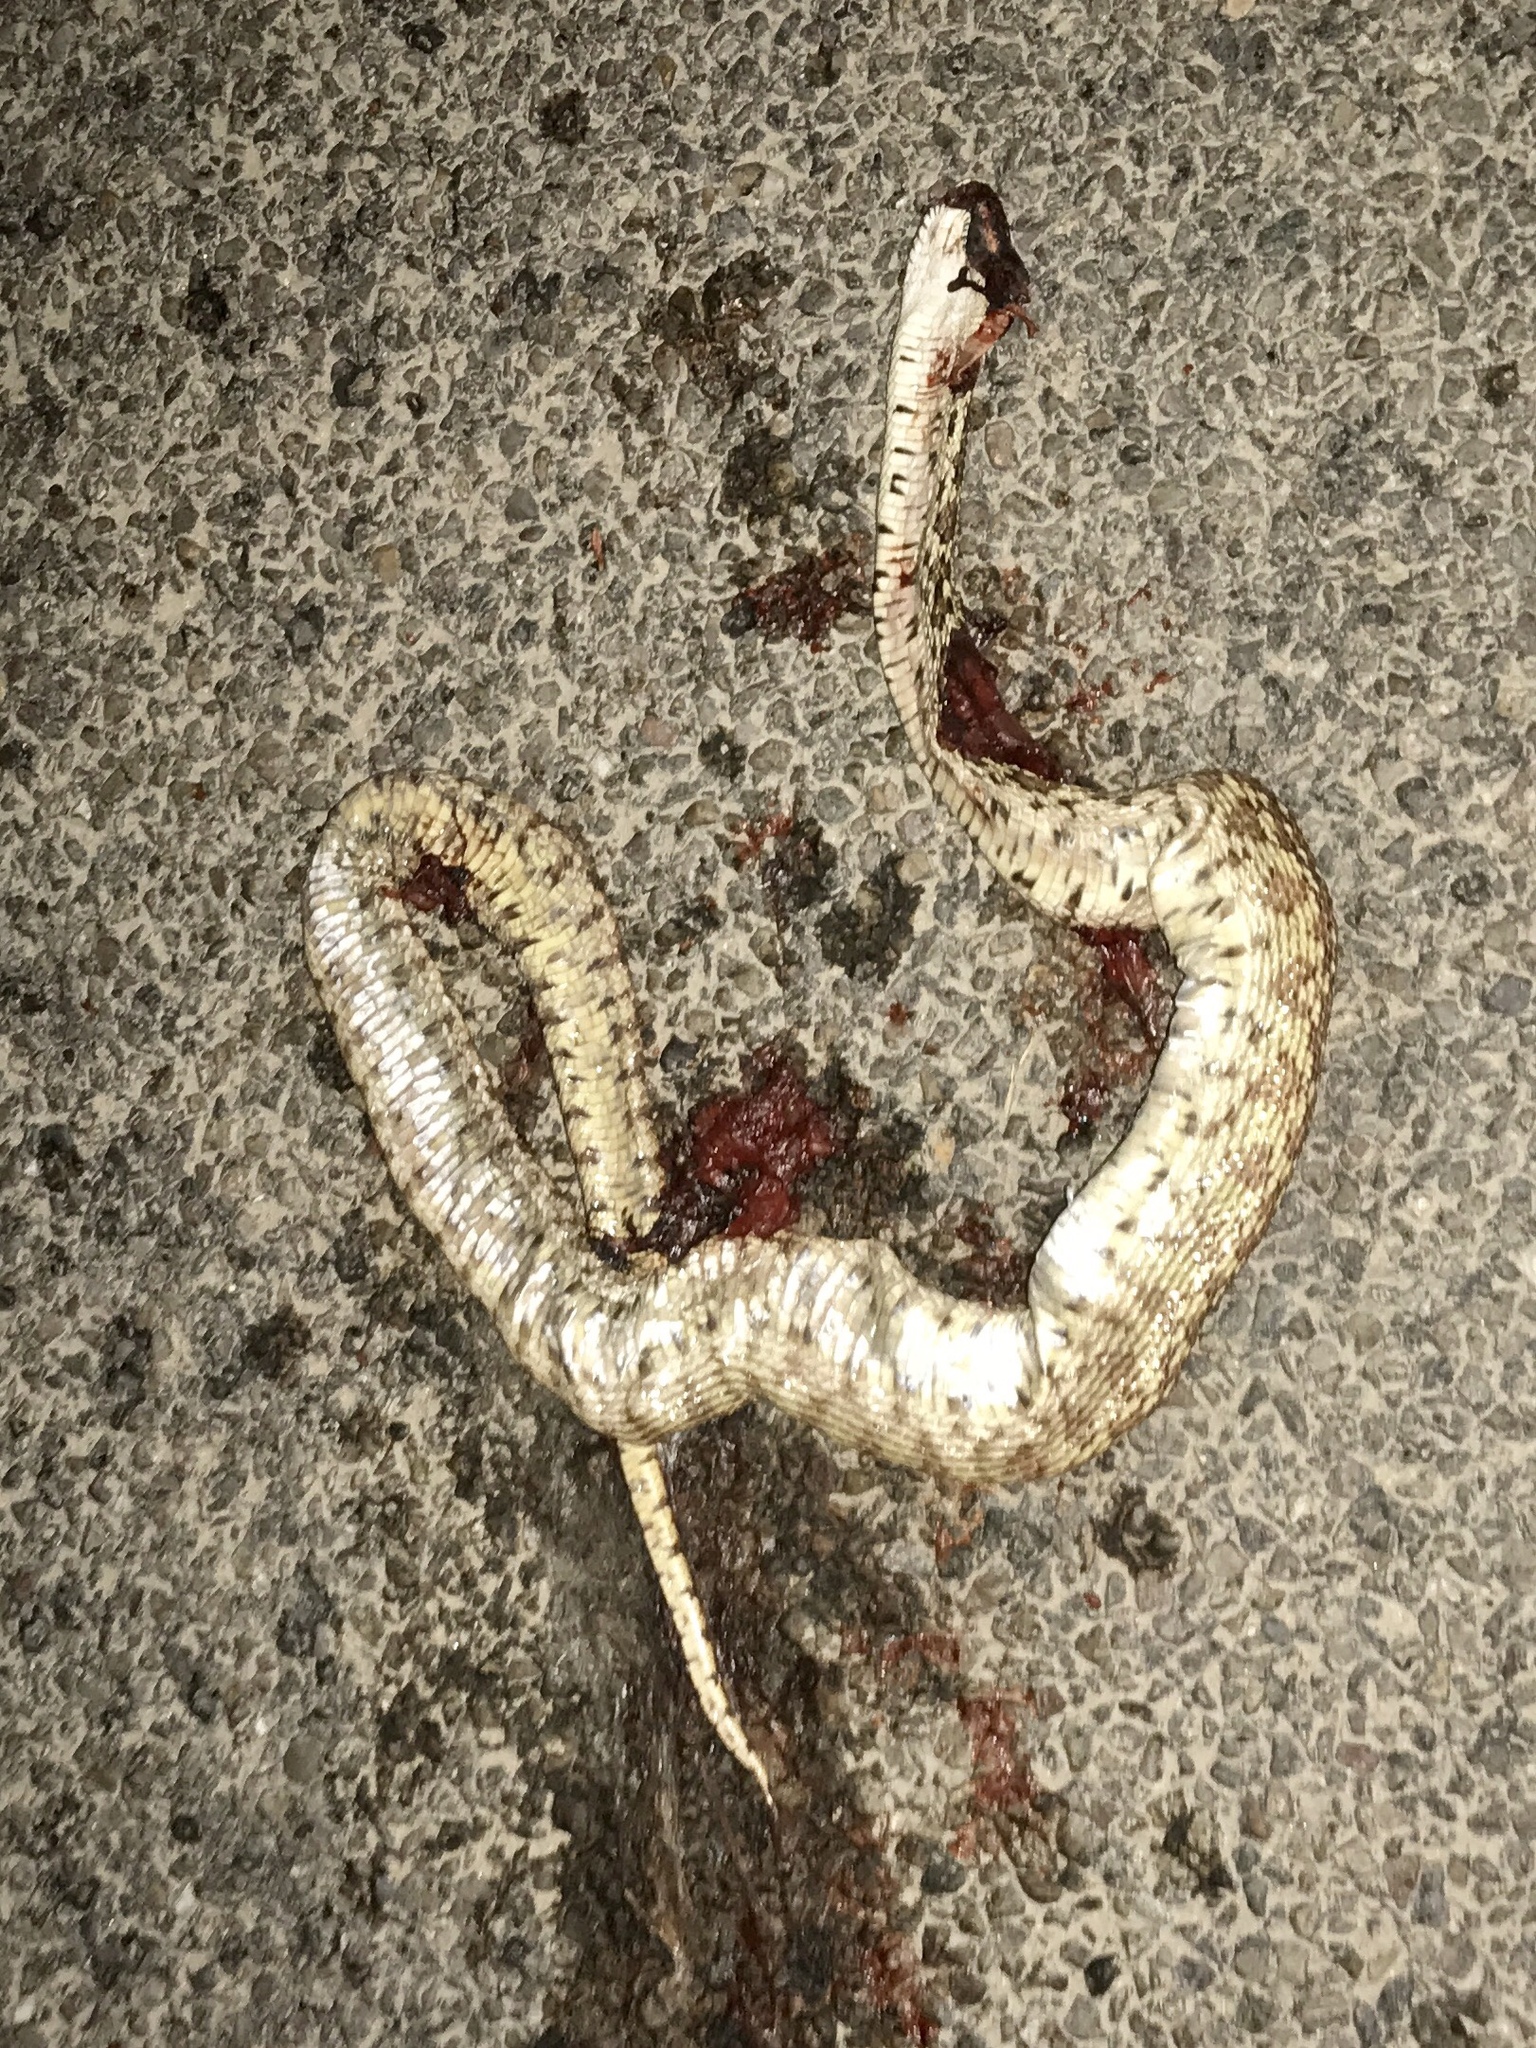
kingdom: Animalia
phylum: Chordata
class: Squamata
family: Colubridae
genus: Pituophis
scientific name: Pituophis catenifer
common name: Gopher snake
